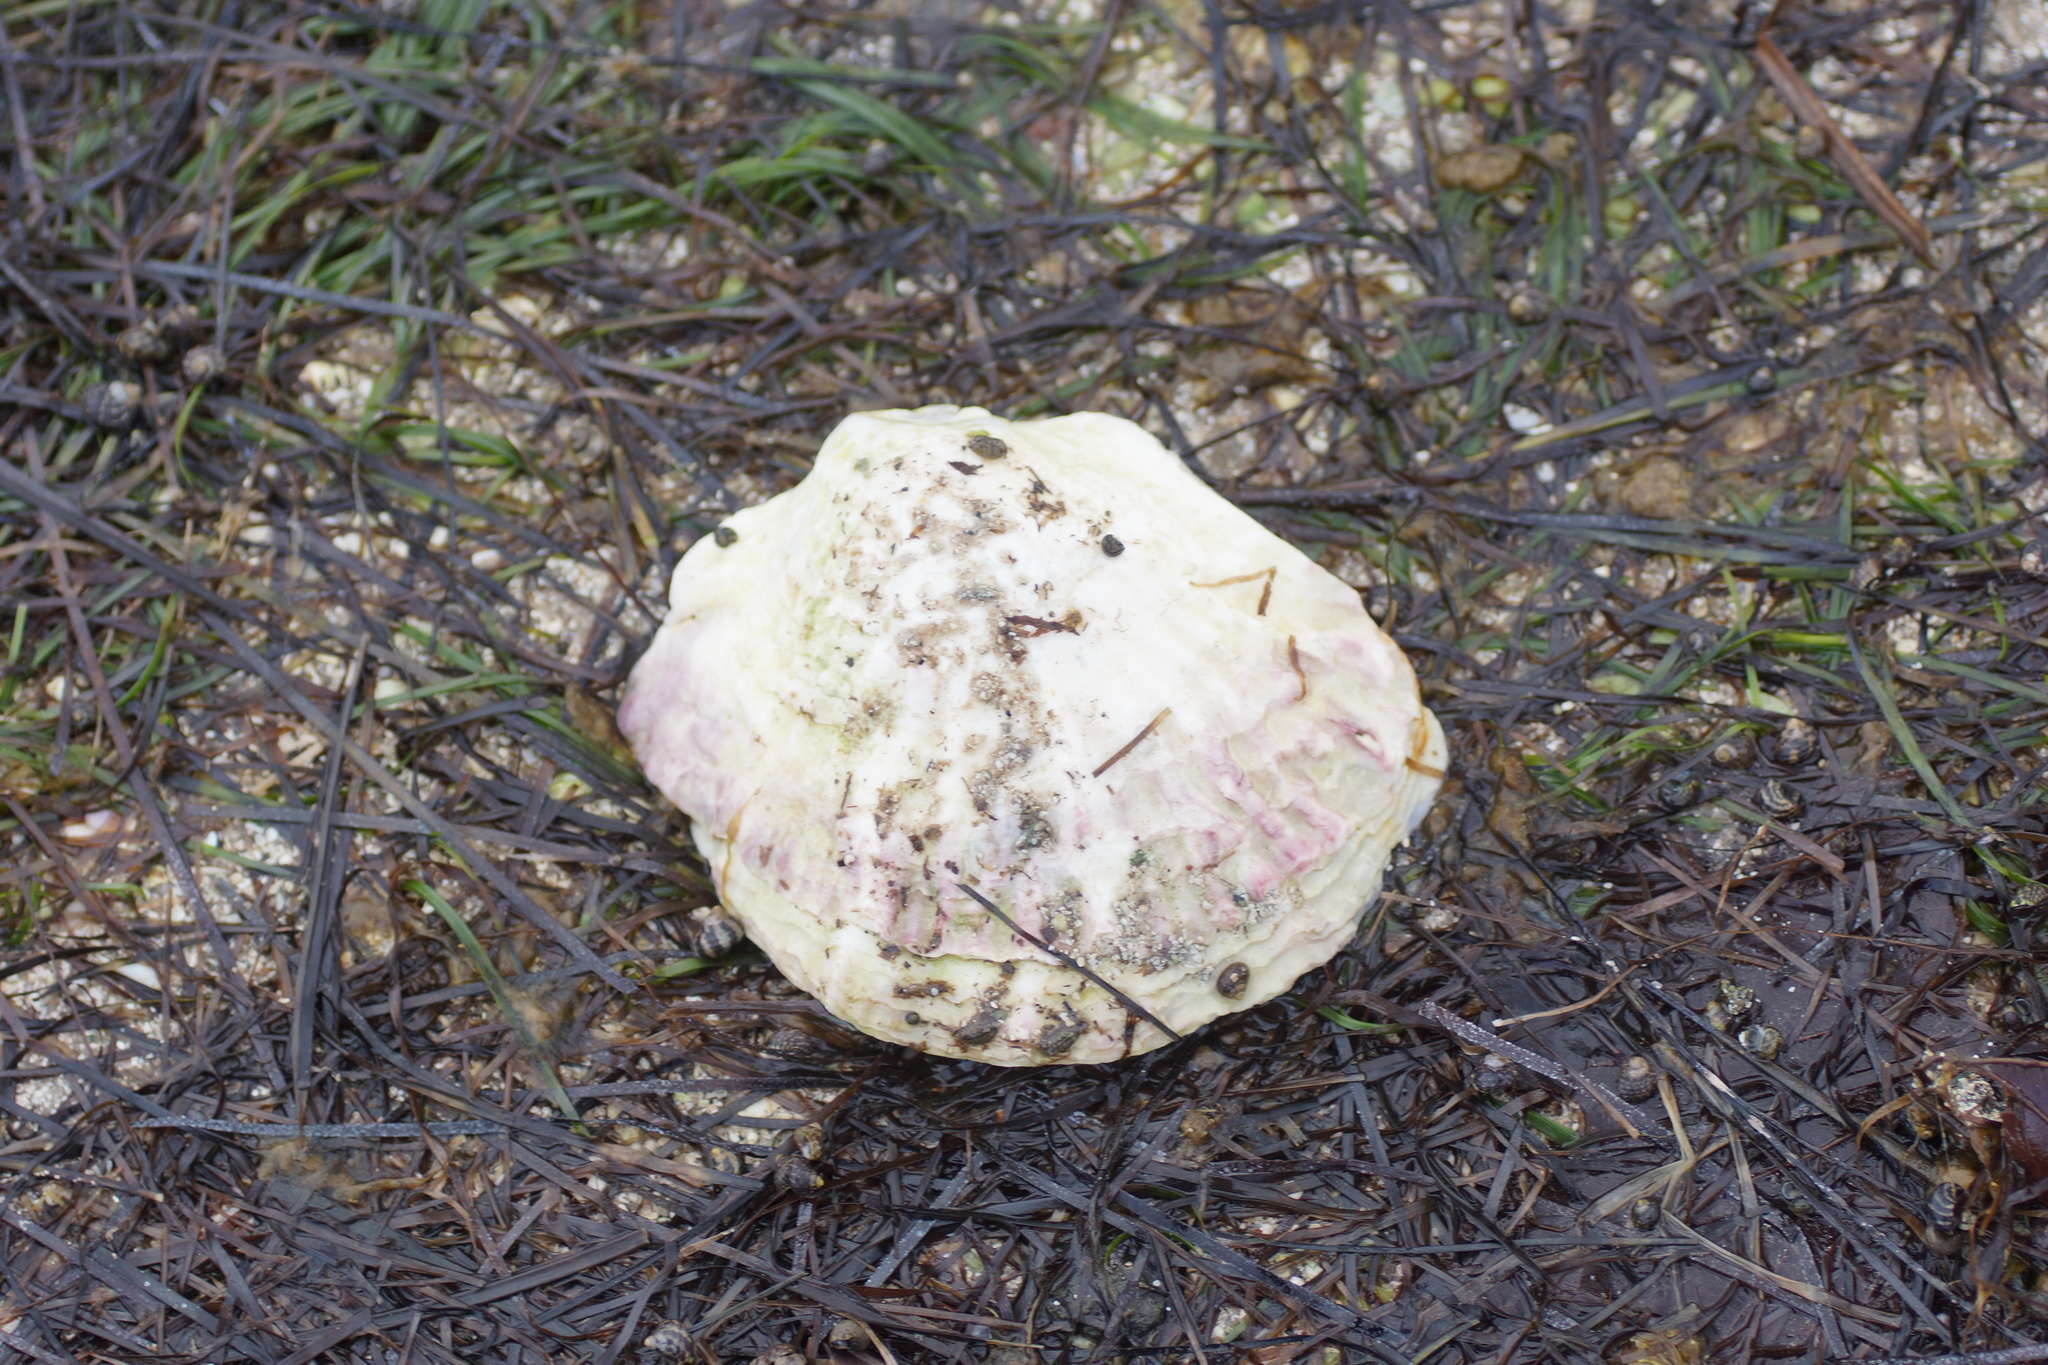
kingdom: Animalia
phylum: Mollusca
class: Bivalvia
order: Ostreida
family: Ostreidae
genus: Ostrea
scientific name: Ostrea angasi
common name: Angasi oyster
